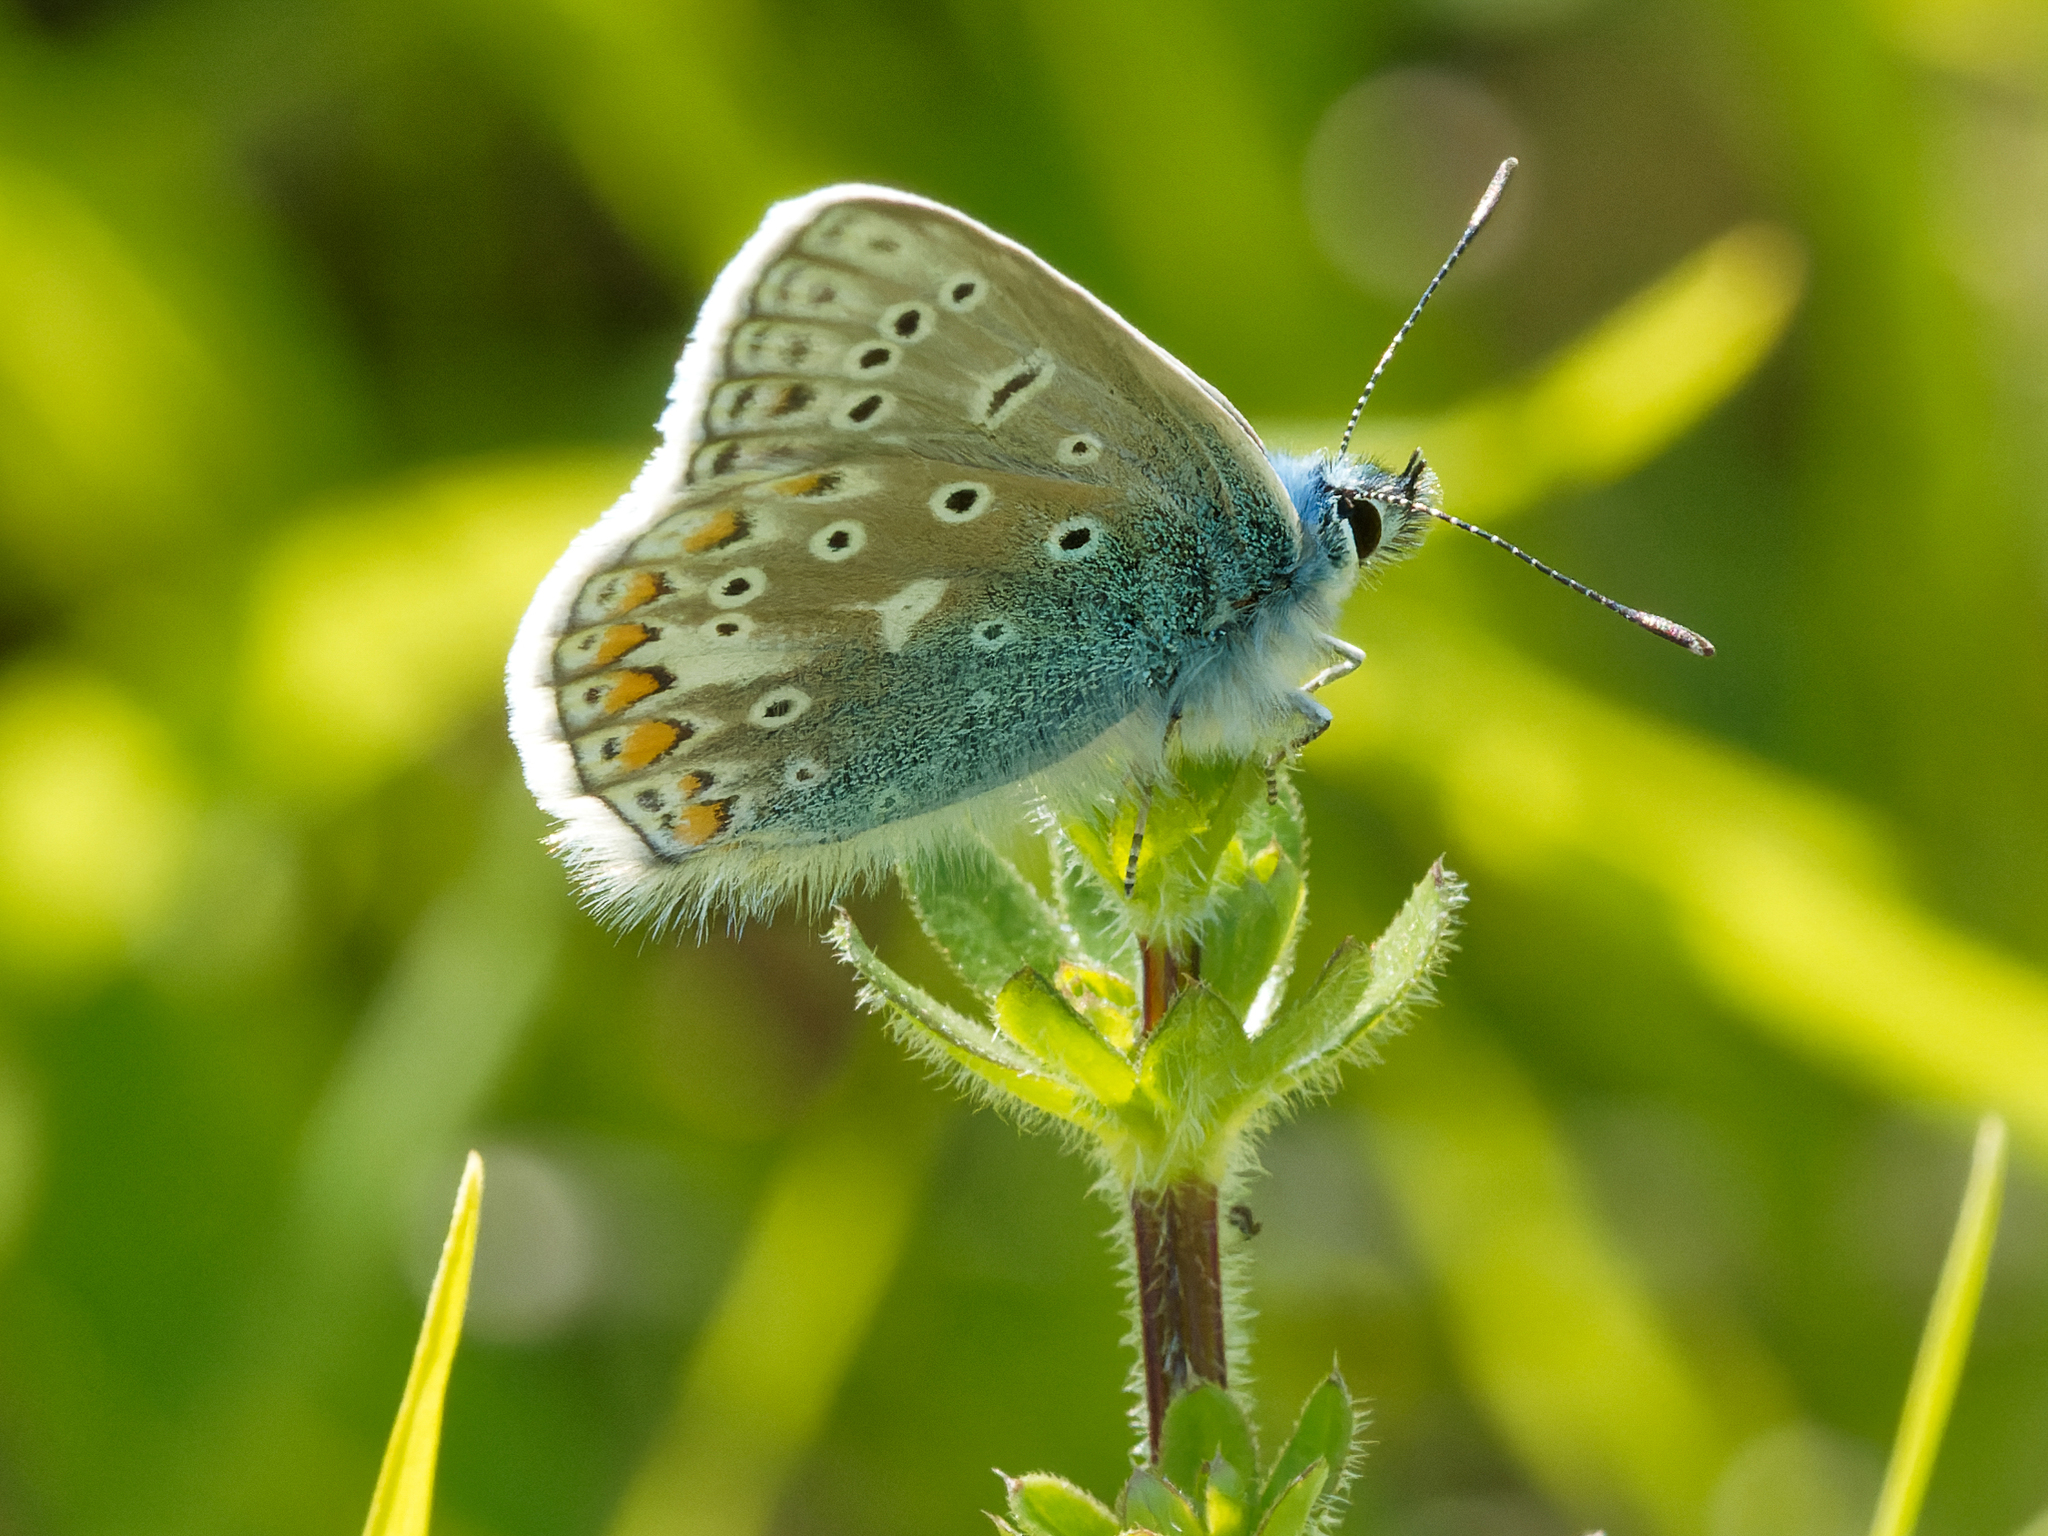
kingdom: Animalia
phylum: Arthropoda
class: Insecta
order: Lepidoptera
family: Lycaenidae
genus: Polyommatus
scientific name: Polyommatus icarus
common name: Common blue
